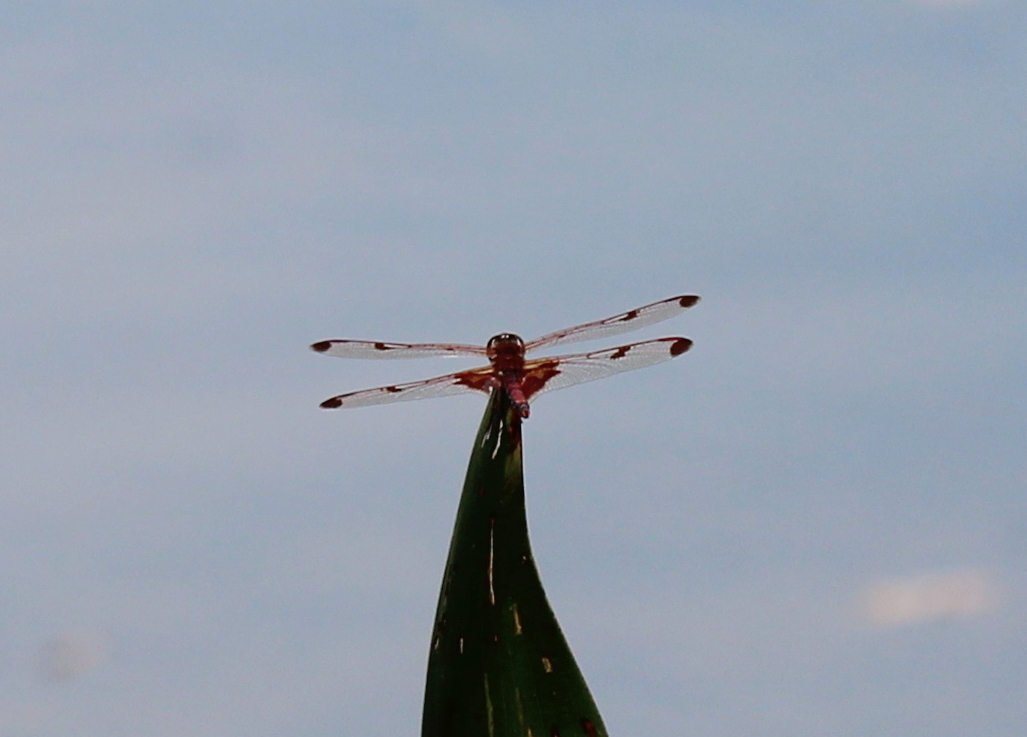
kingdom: Animalia
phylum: Arthropoda
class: Insecta
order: Odonata
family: Libellulidae
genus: Celithemis
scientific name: Celithemis elisa
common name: Calico pennant
